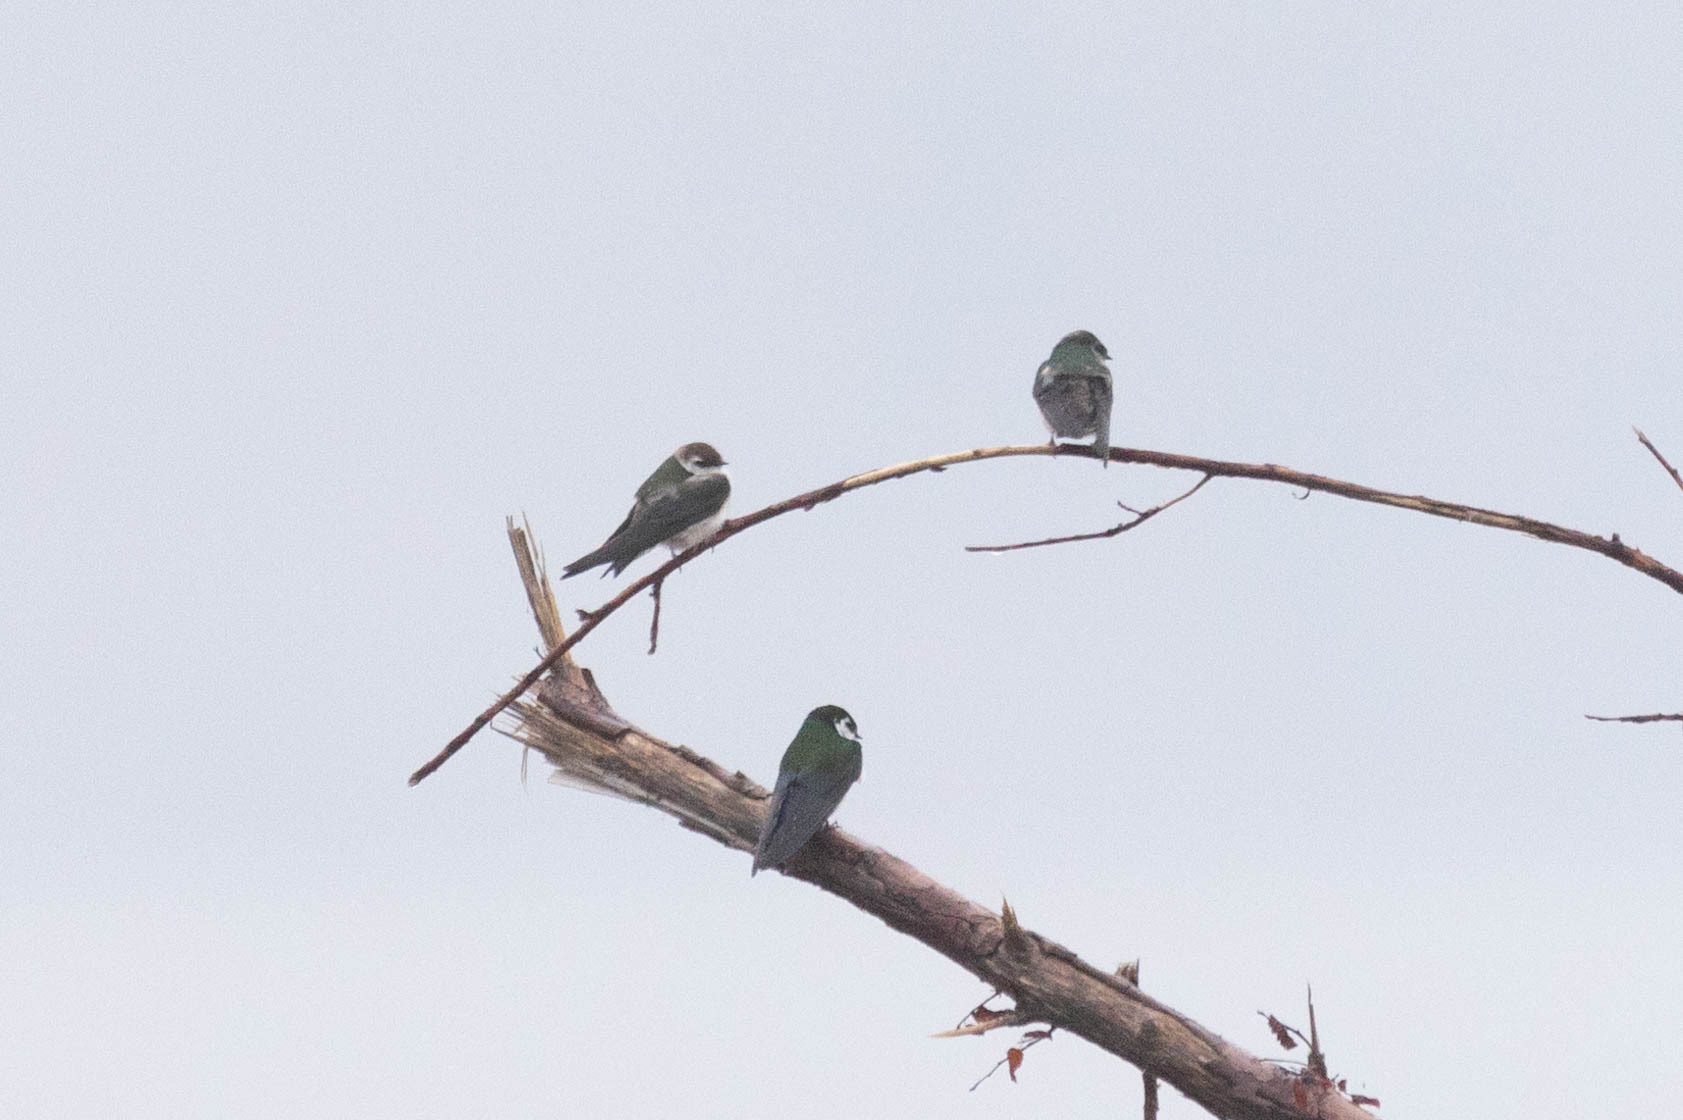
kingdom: Animalia
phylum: Chordata
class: Aves
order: Passeriformes
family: Hirundinidae
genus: Tachycineta
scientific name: Tachycineta thalassina
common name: Violet-green swallow
